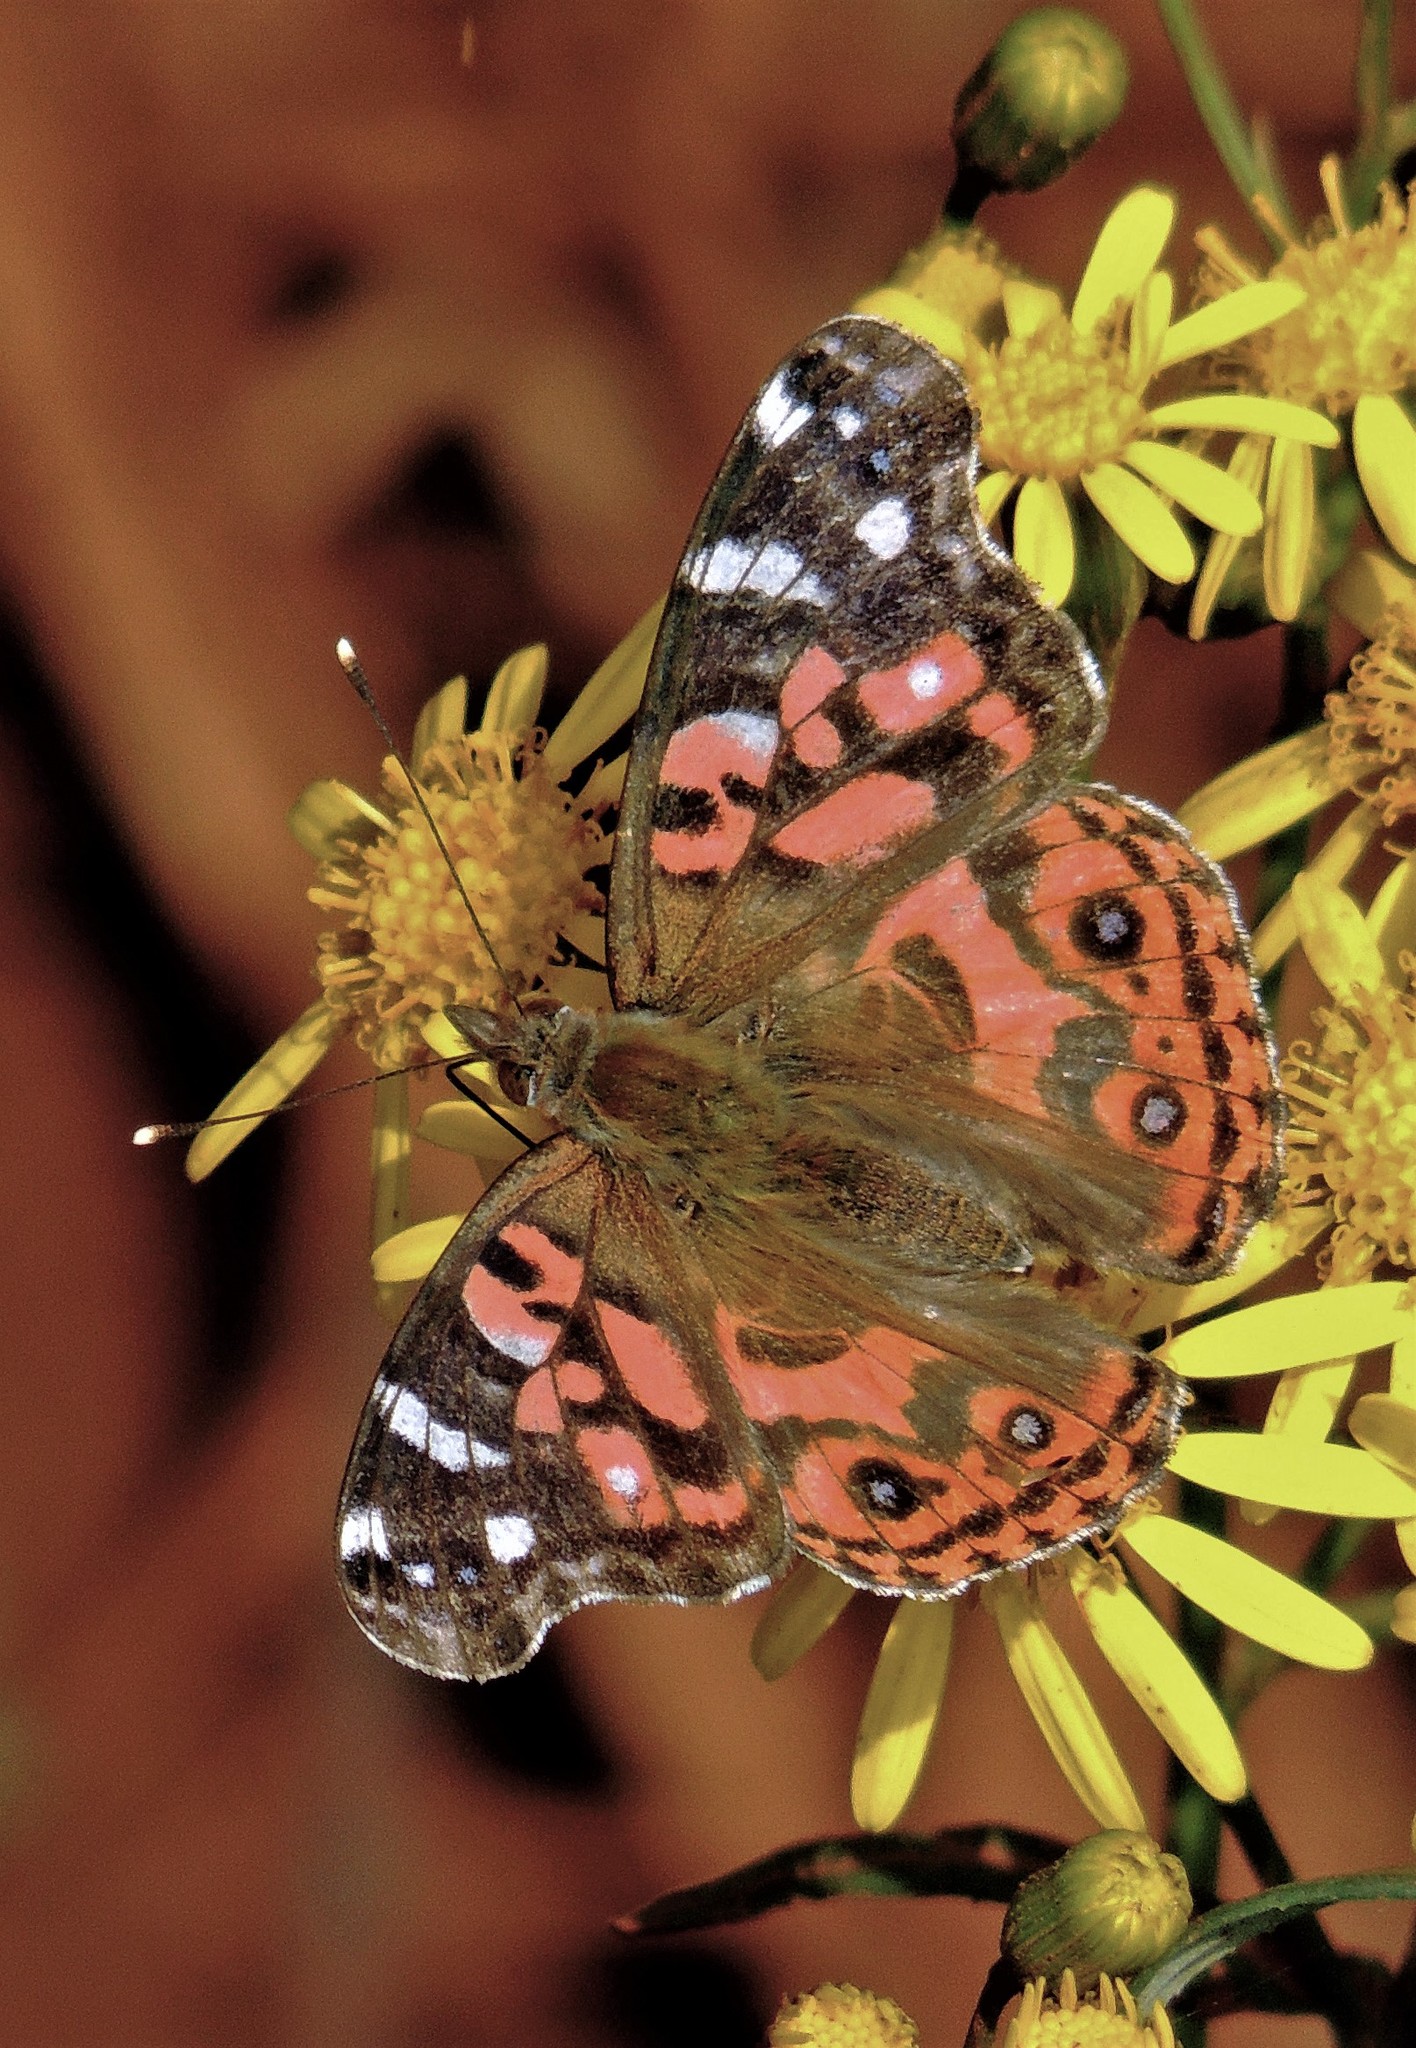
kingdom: Animalia
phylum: Arthropoda
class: Insecta
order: Lepidoptera
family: Nymphalidae
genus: Vanessa
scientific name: Vanessa braziliensis
